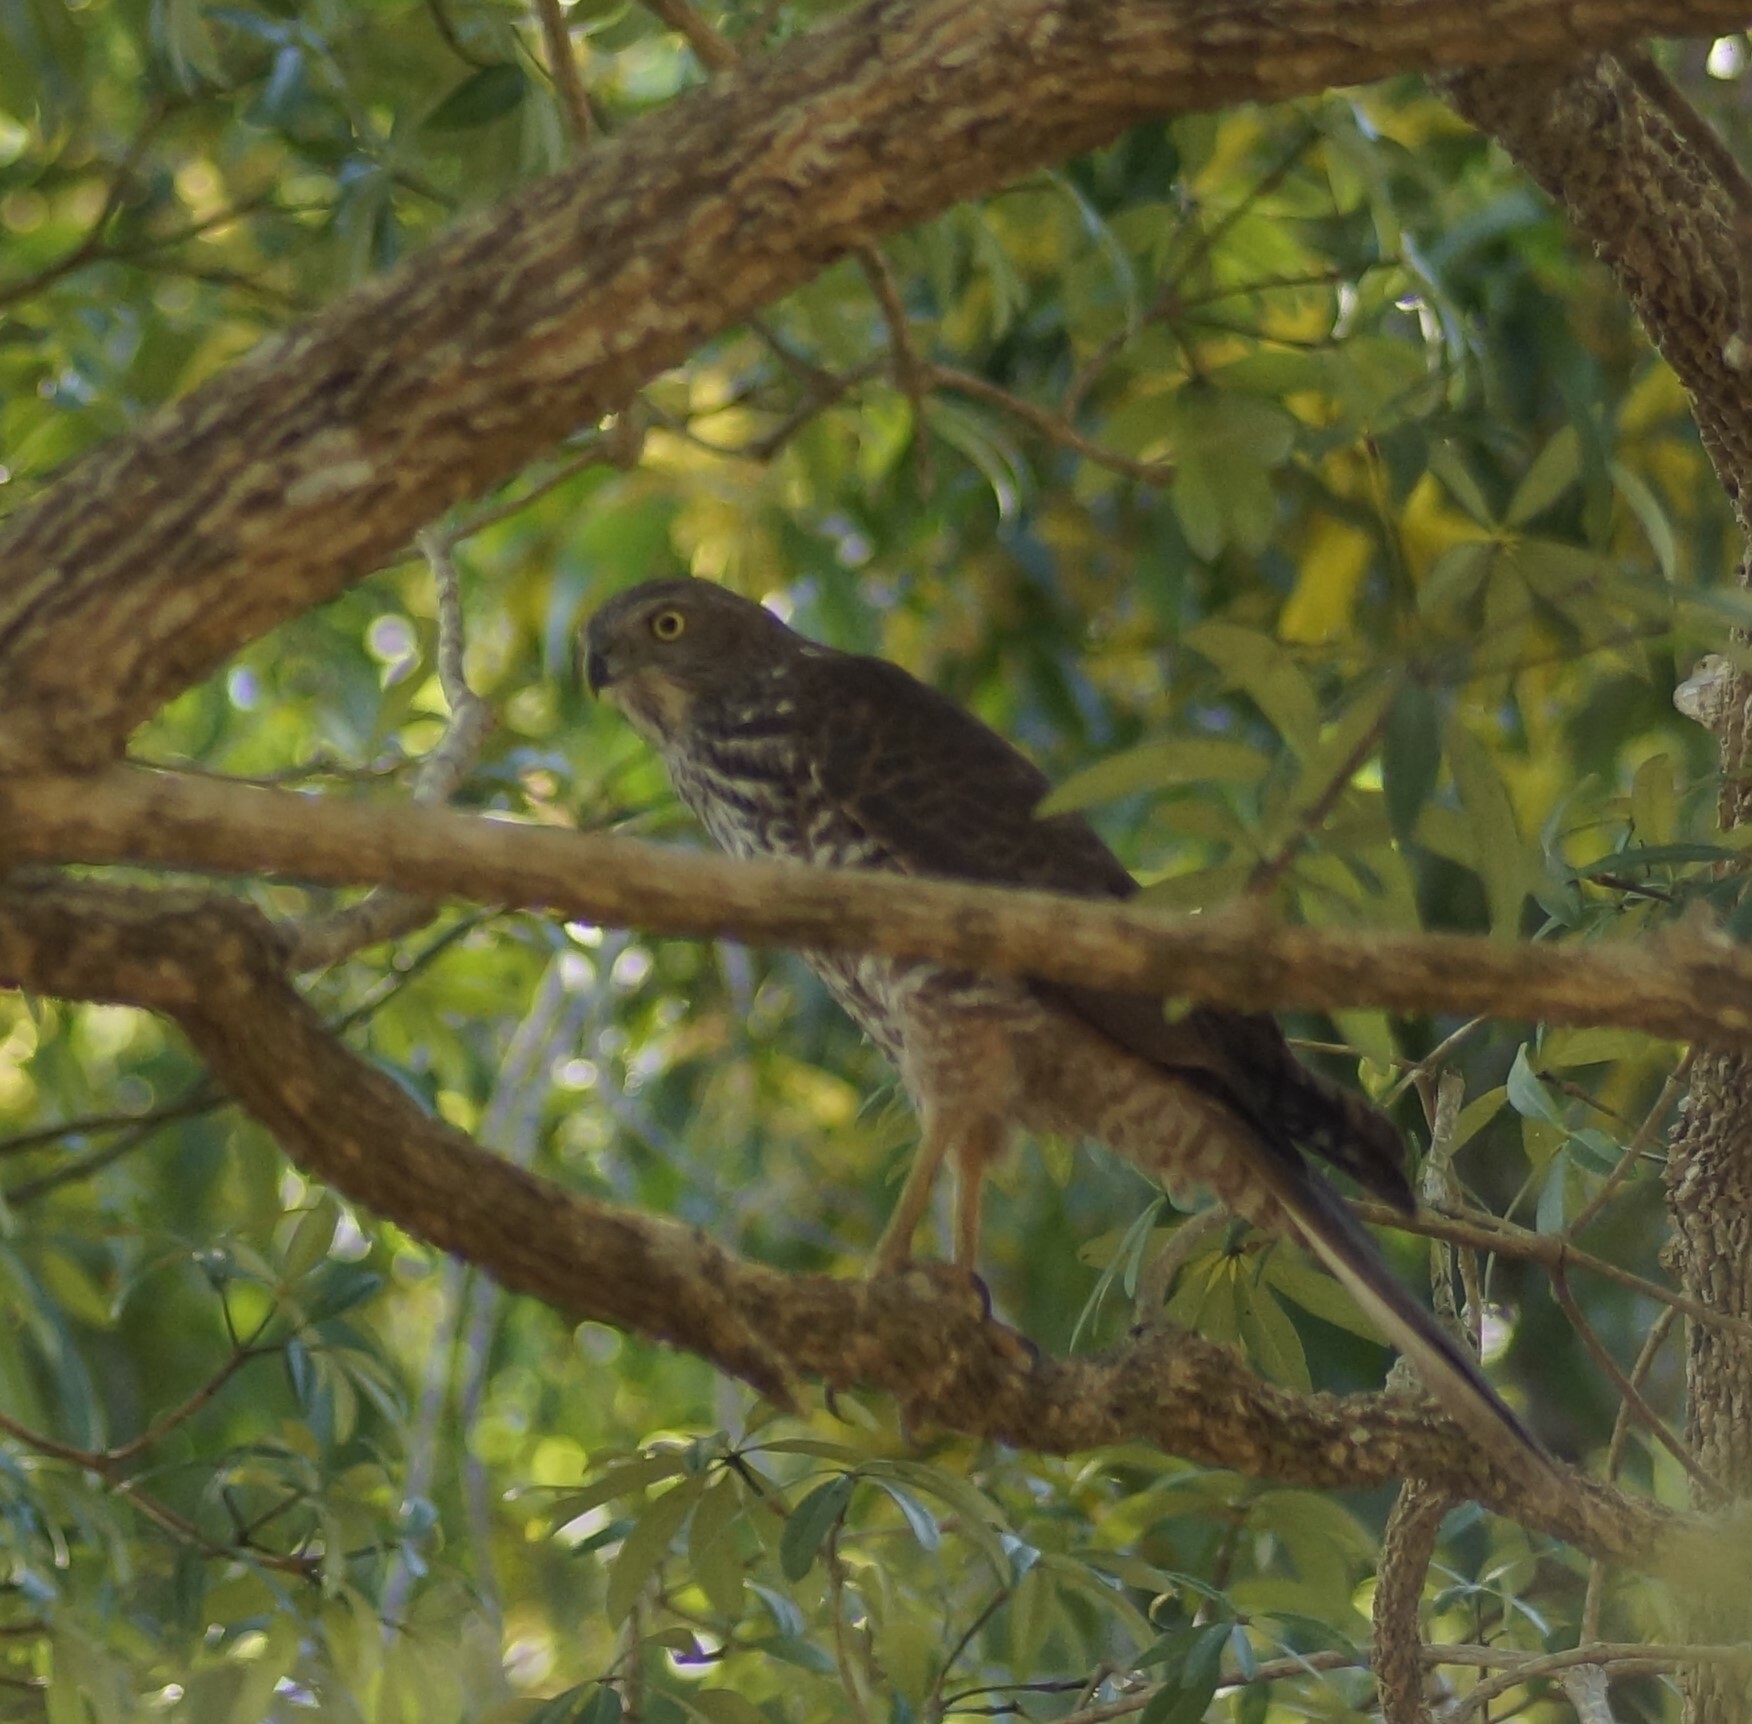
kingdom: Animalia
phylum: Chordata
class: Aves
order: Accipitriformes
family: Accipitridae
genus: Accipiter
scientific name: Accipiter fasciatus
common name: Brown goshawk
